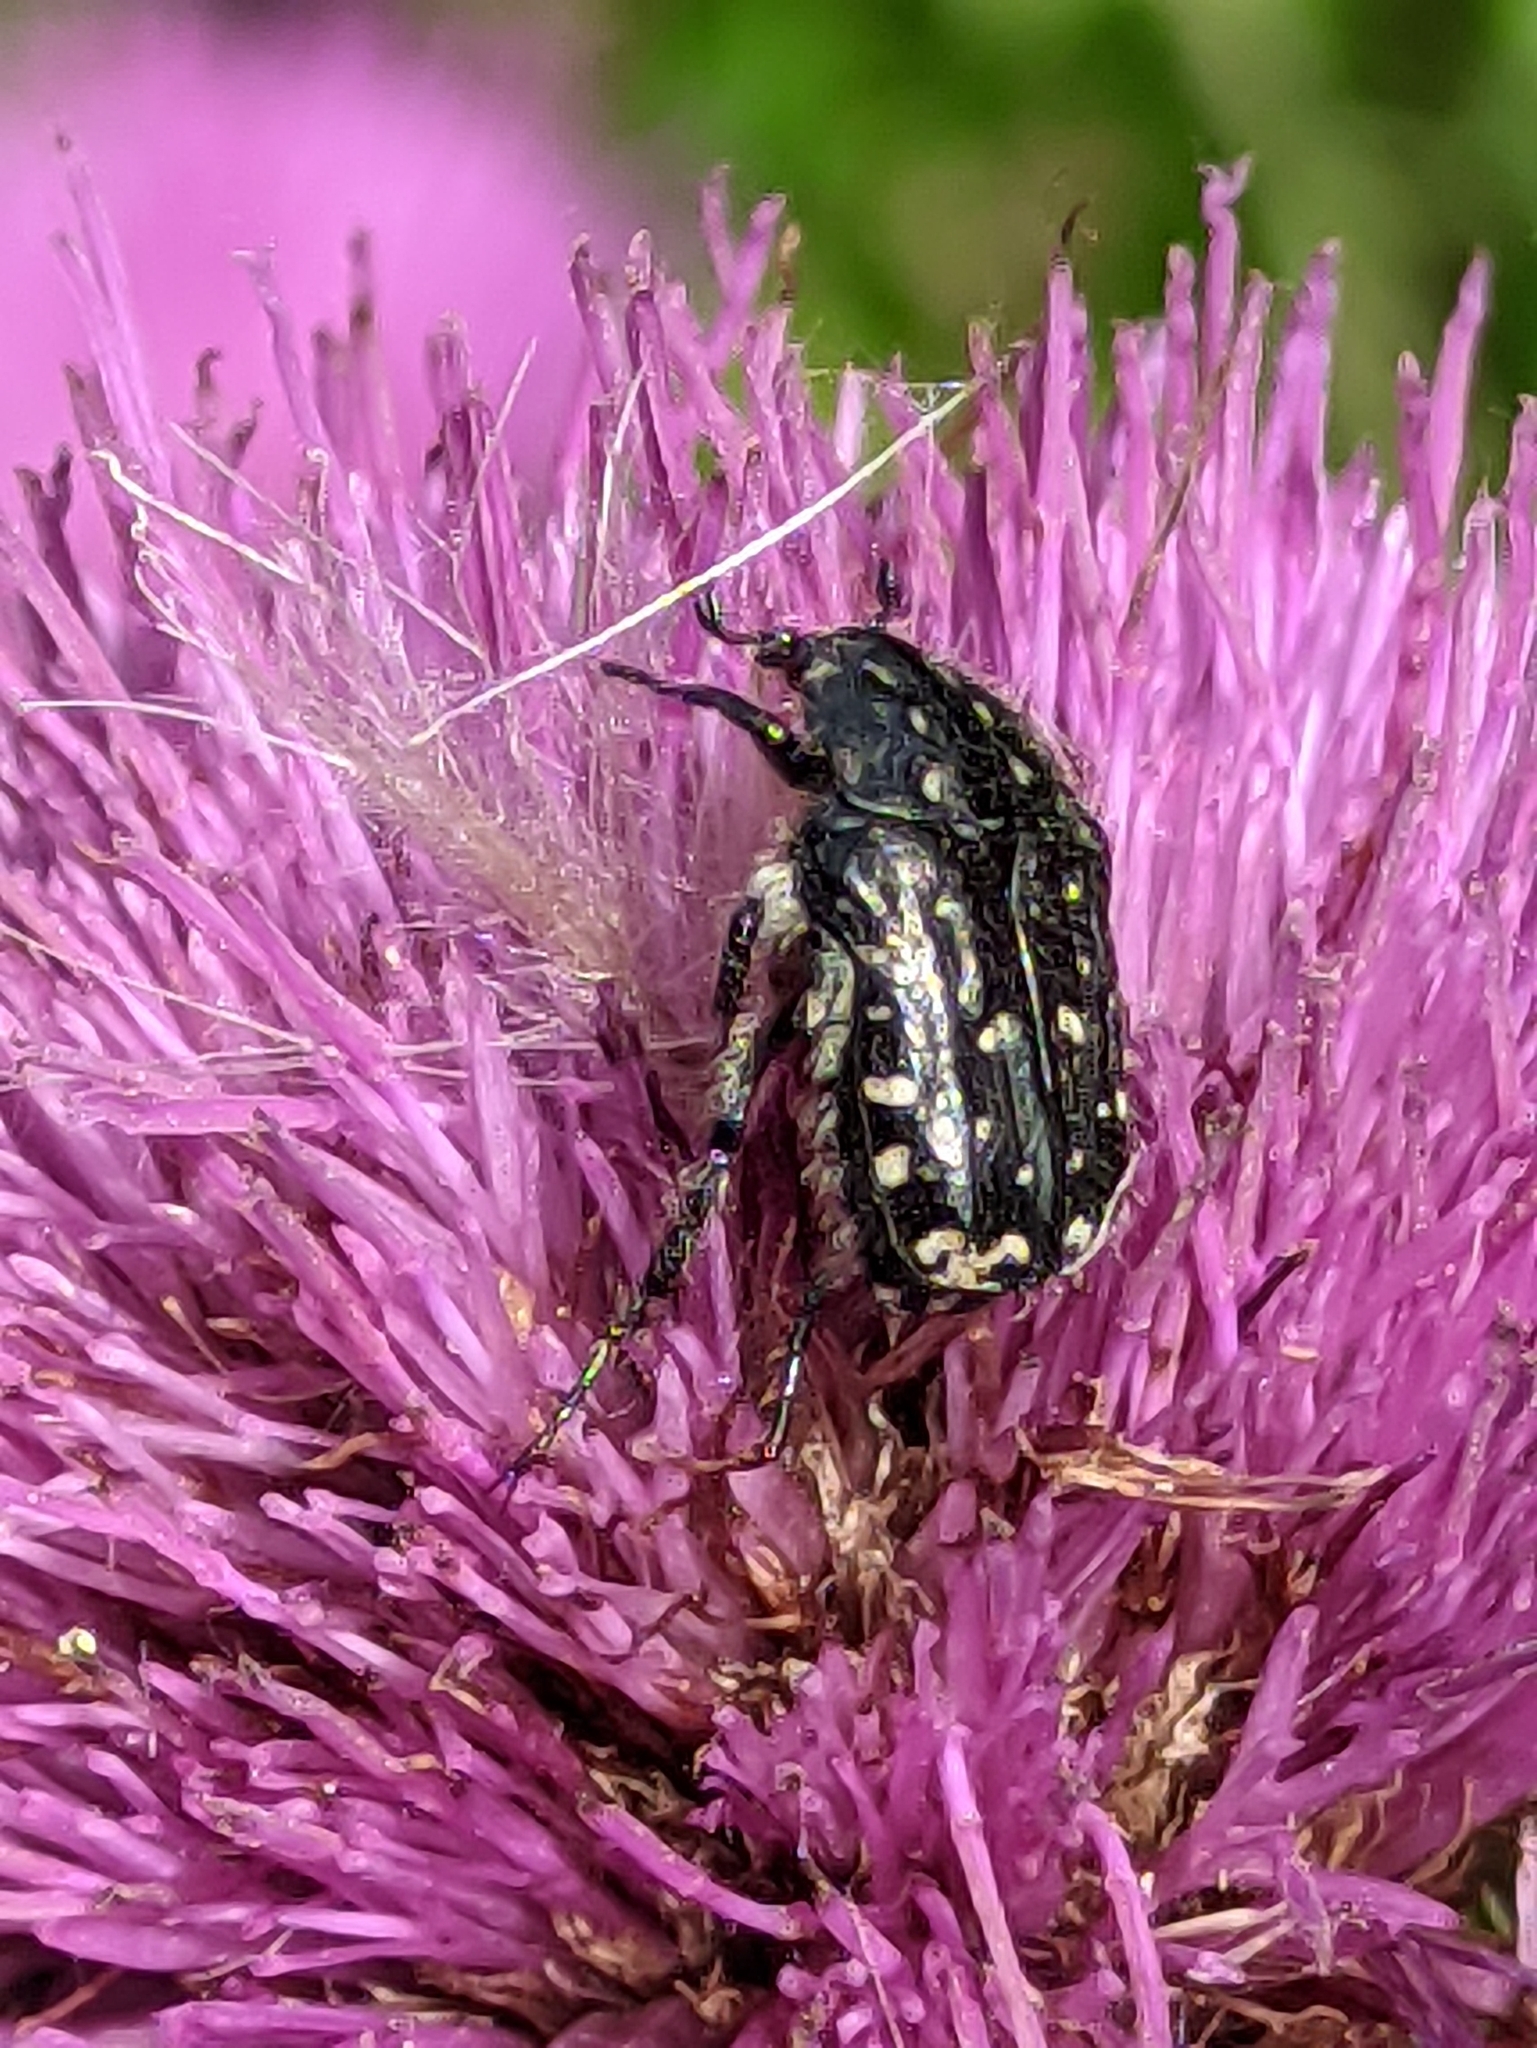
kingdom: Animalia
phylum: Arthropoda
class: Insecta
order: Coleoptera
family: Scarabaeidae
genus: Oxythyrea
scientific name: Oxythyrea funesta
